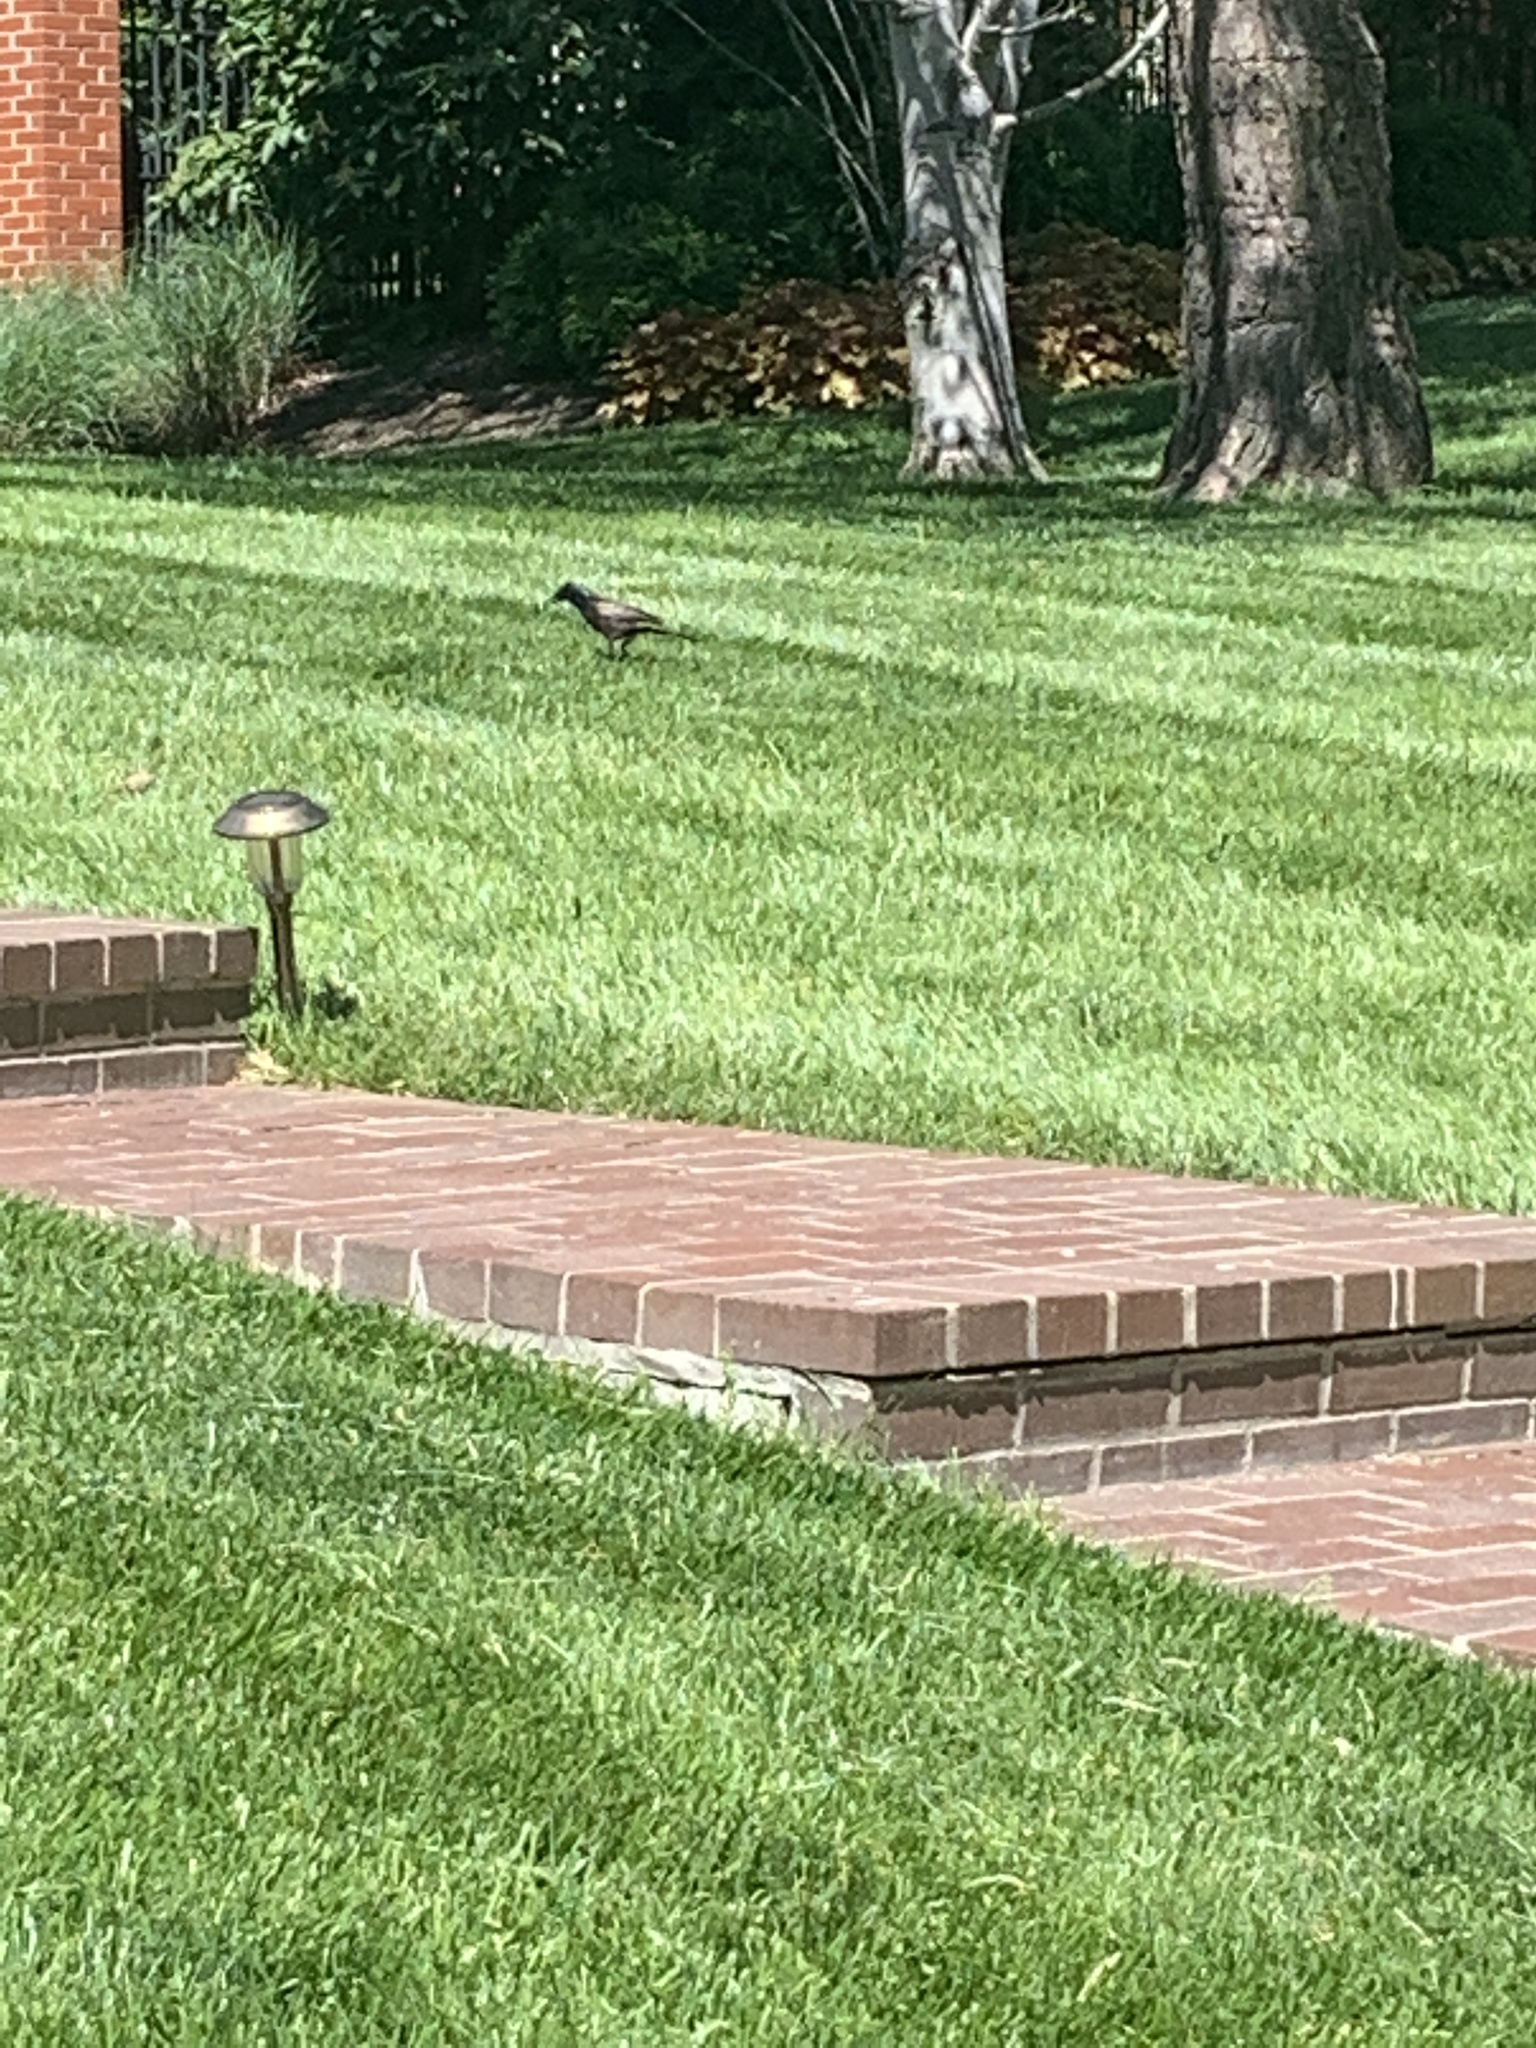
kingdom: Animalia
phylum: Chordata
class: Aves
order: Passeriformes
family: Icteridae
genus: Quiscalus
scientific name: Quiscalus quiscula
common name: Common grackle
